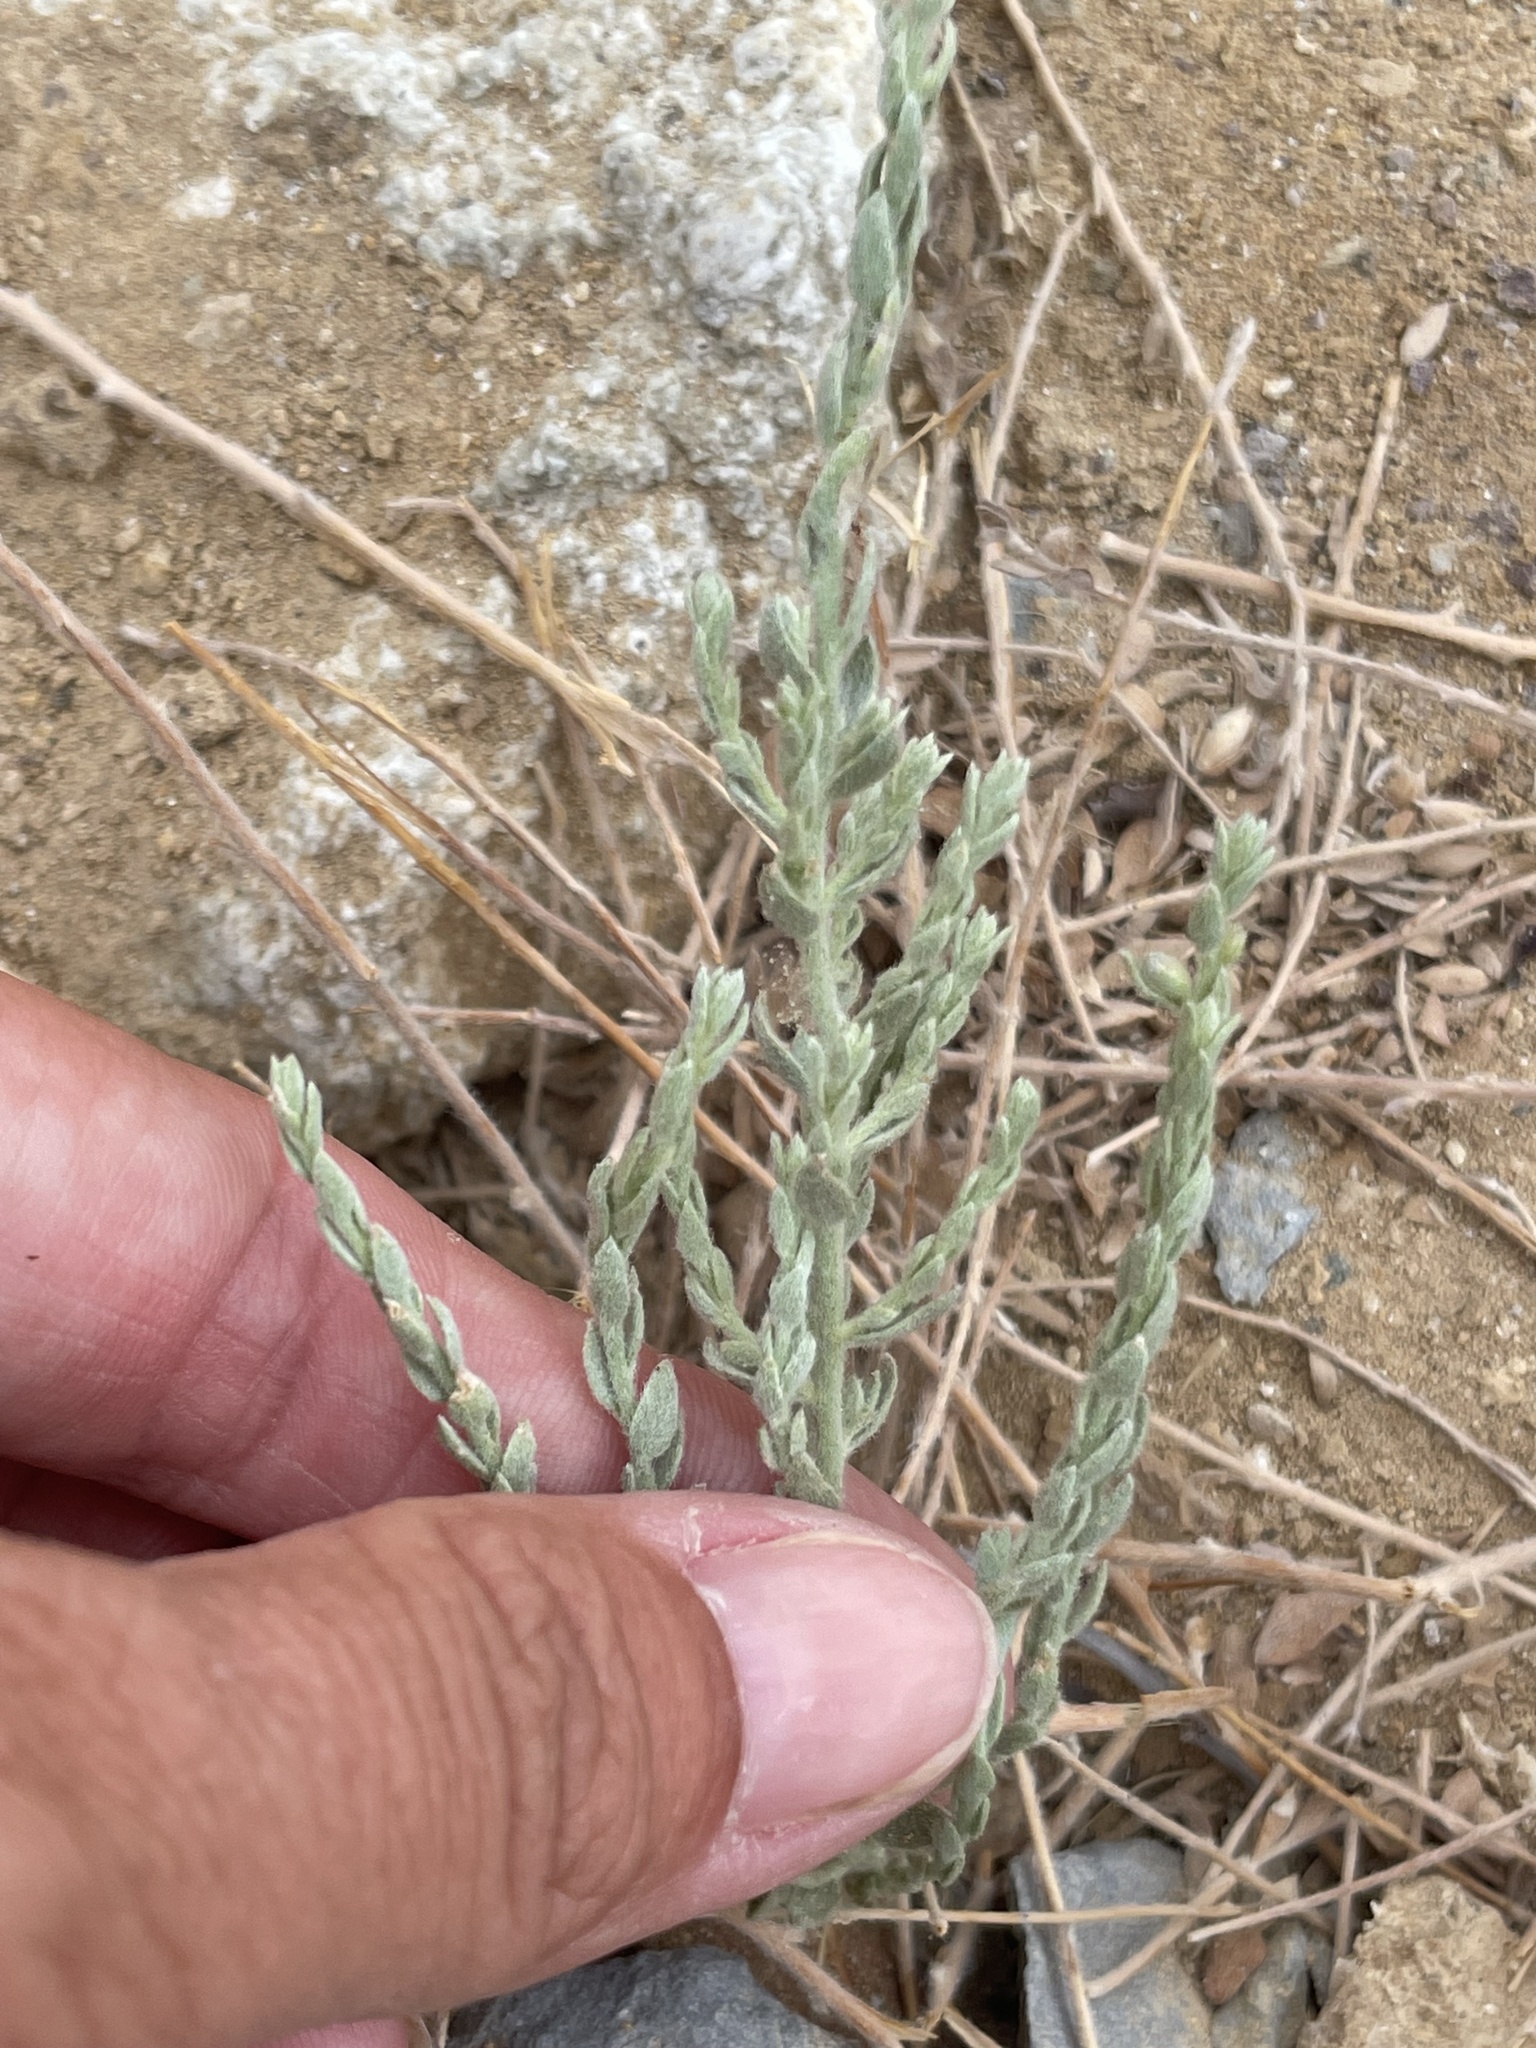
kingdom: Plantae
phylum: Tracheophyta
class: Magnoliopsida
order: Solanales
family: Convolvulaceae
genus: Cressa
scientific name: Cressa truxillensis
